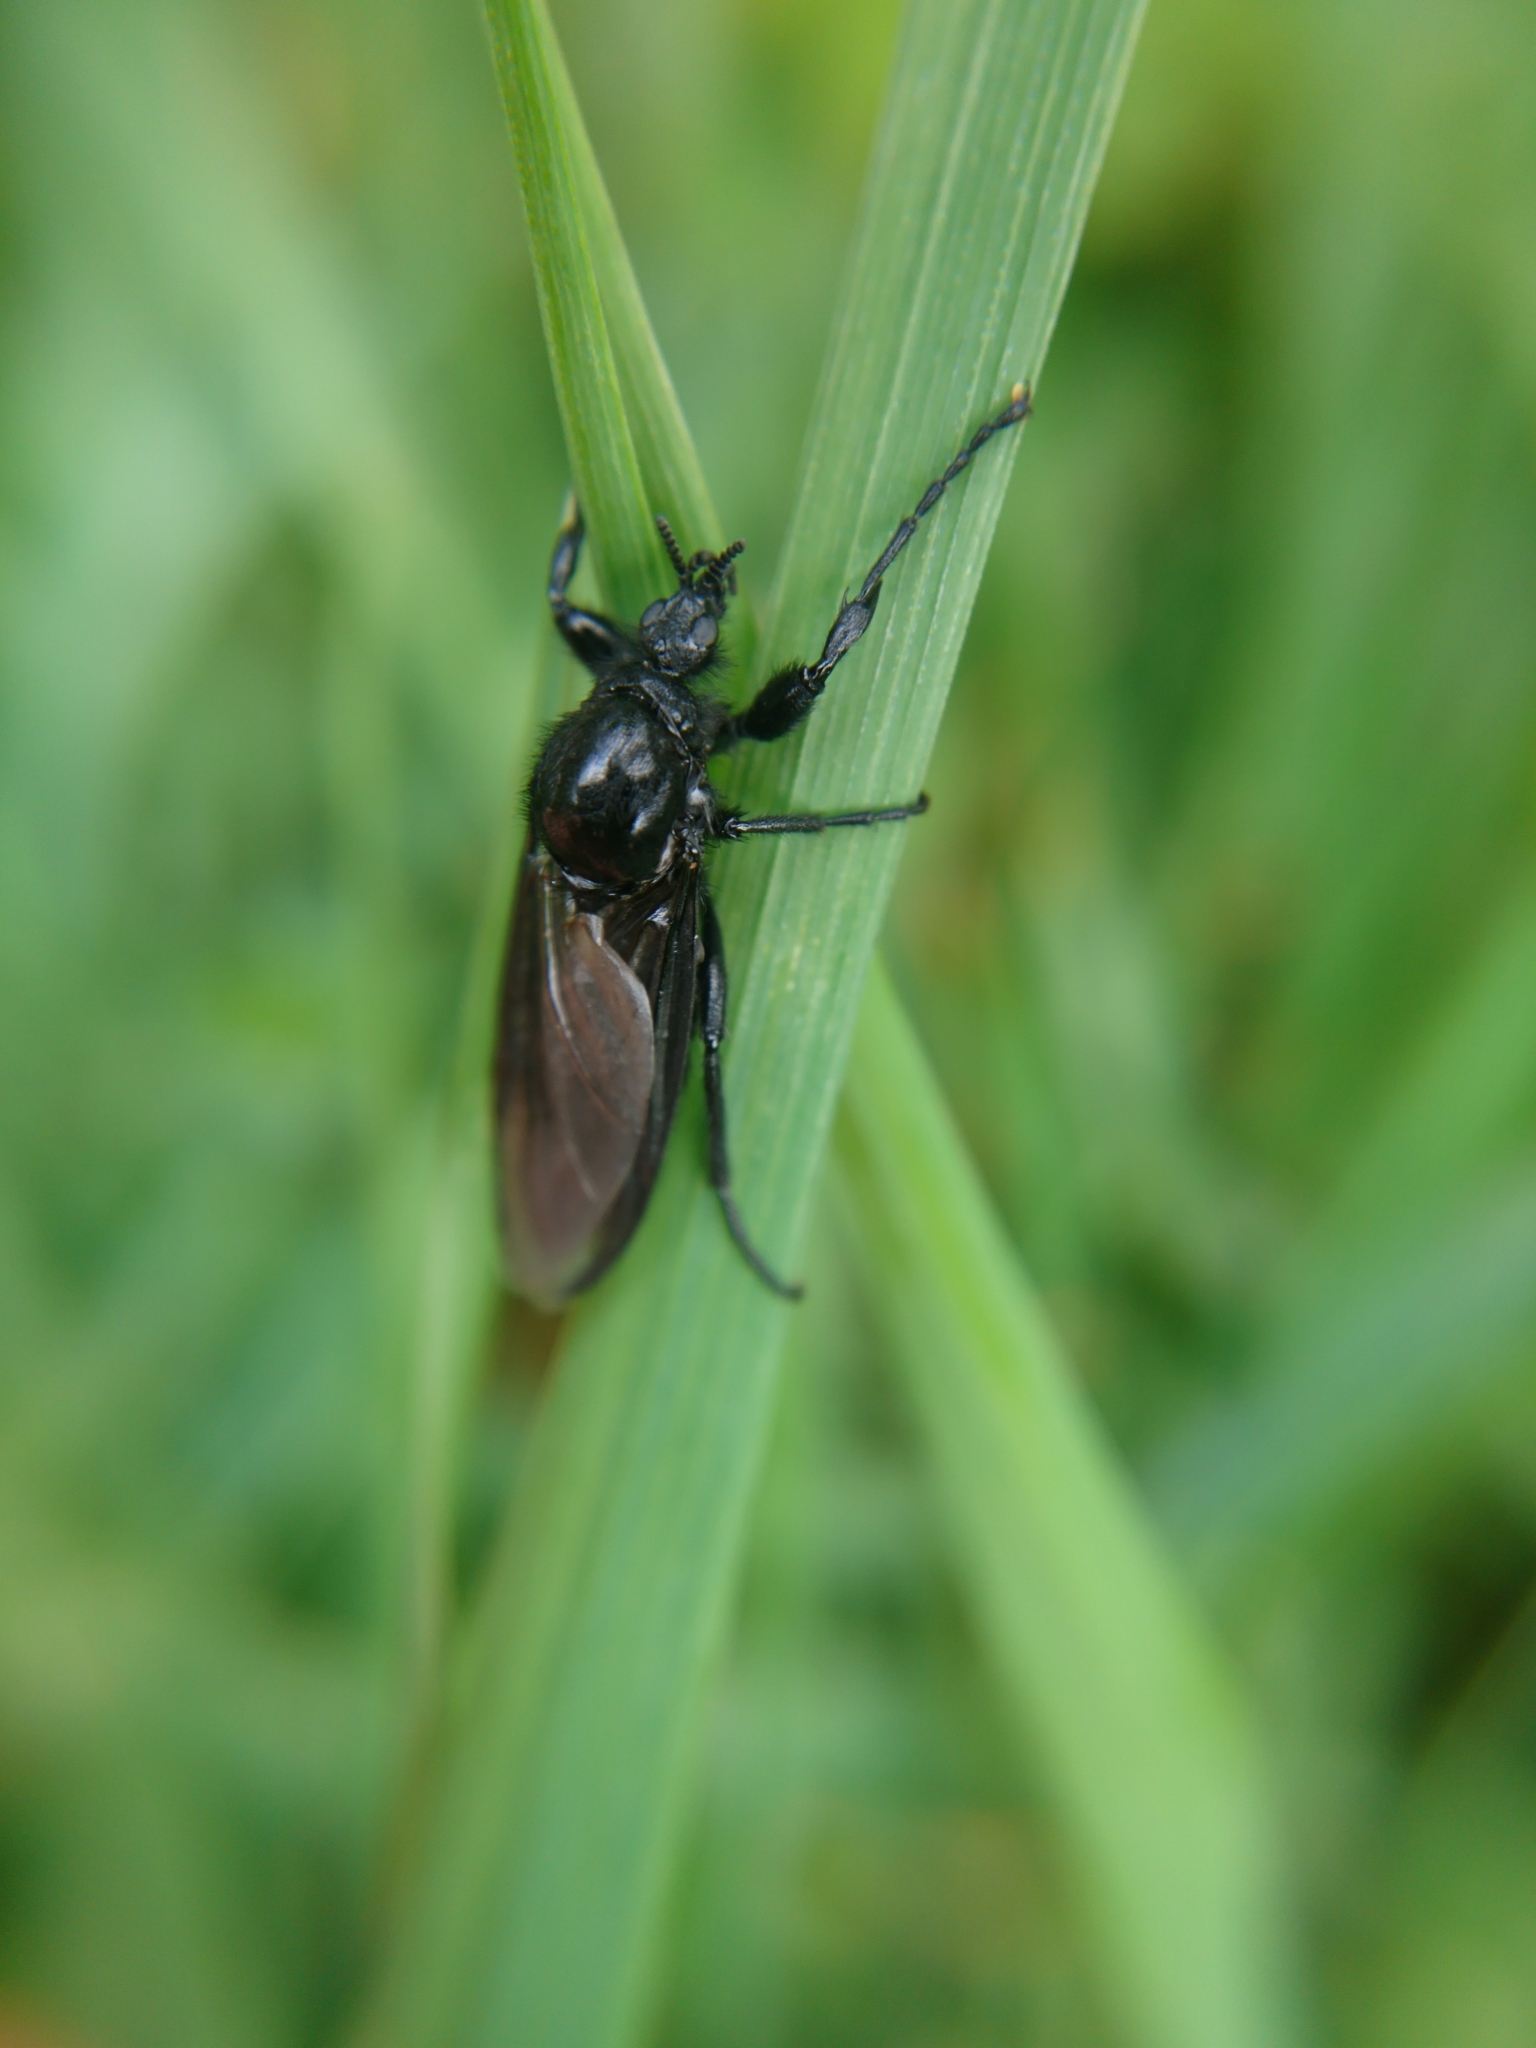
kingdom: Animalia
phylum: Arthropoda
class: Insecta
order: Diptera
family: Bibionidae
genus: Bibio
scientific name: Bibio marci
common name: St marks fly
